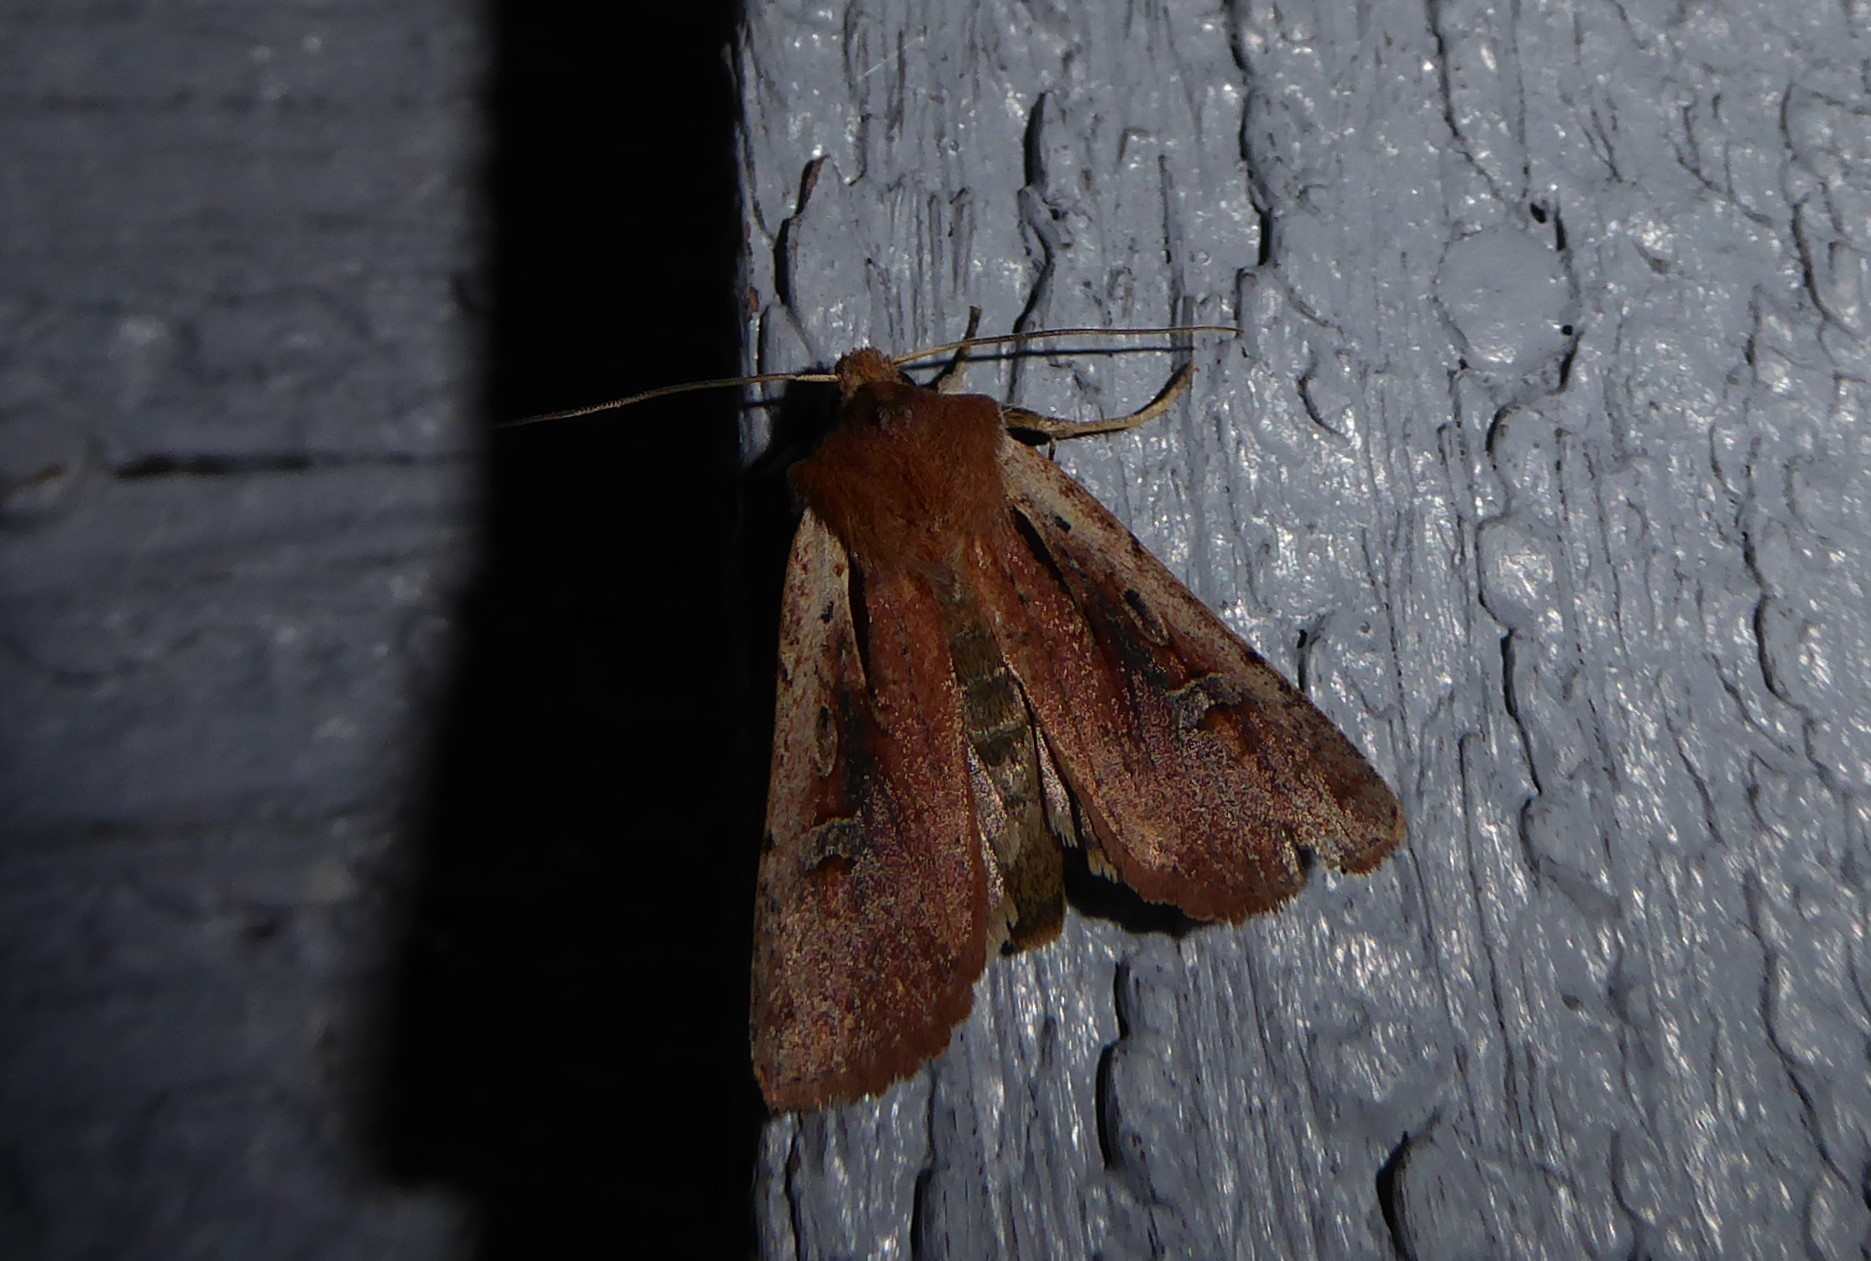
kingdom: Animalia
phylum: Arthropoda
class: Insecta
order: Lepidoptera
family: Noctuidae
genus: Ichneutica
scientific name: Ichneutica atristriga
